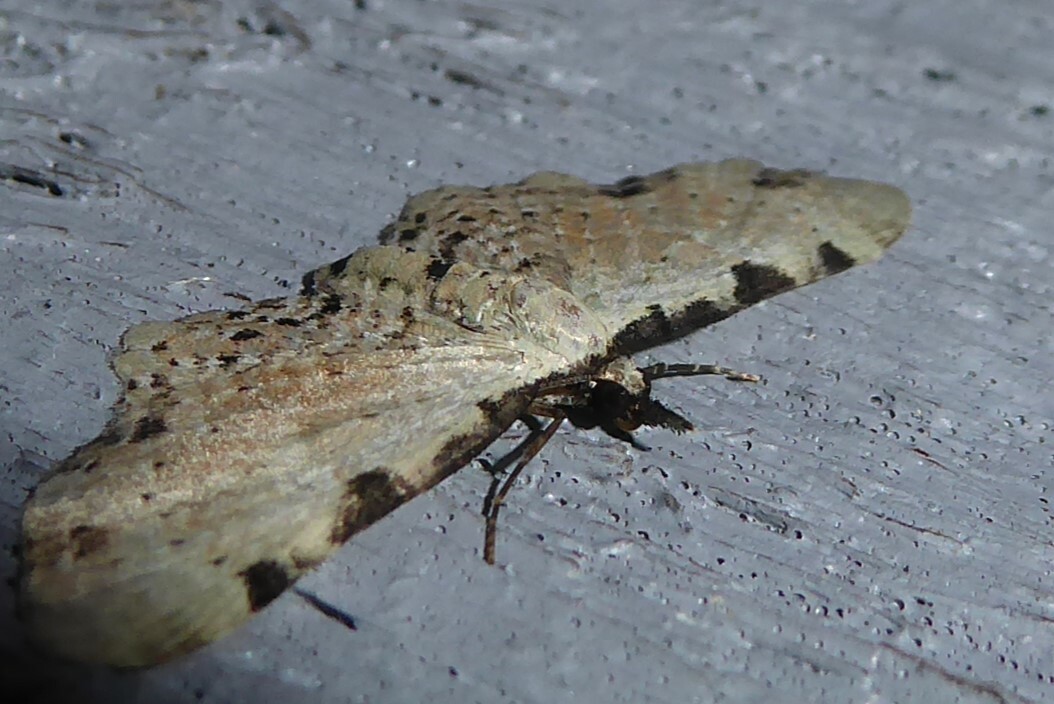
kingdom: Animalia
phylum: Arthropoda
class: Insecta
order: Lepidoptera
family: Geometridae
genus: Pasiphila
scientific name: Pasiphila fumipalpata
